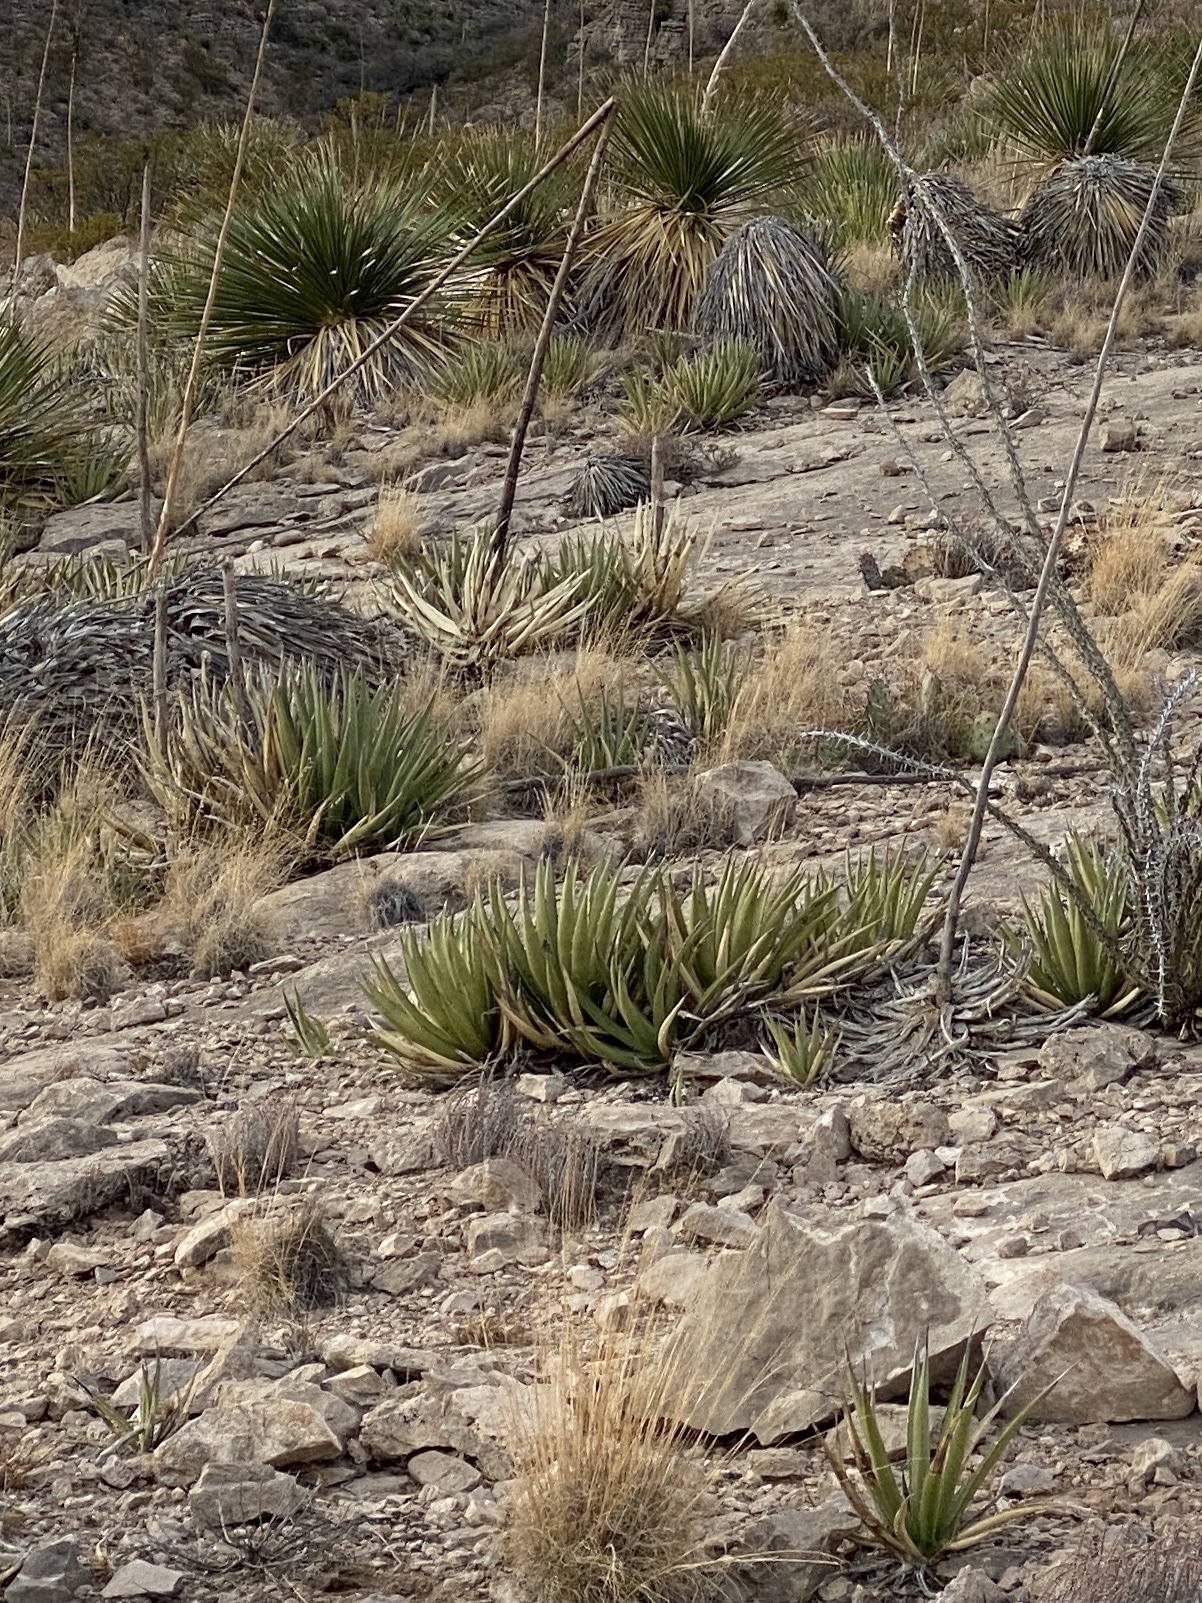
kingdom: Plantae
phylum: Tracheophyta
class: Liliopsida
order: Asparagales
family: Asparagaceae
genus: Agave
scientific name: Agave lechuguilla
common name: Lecheguilla agave
